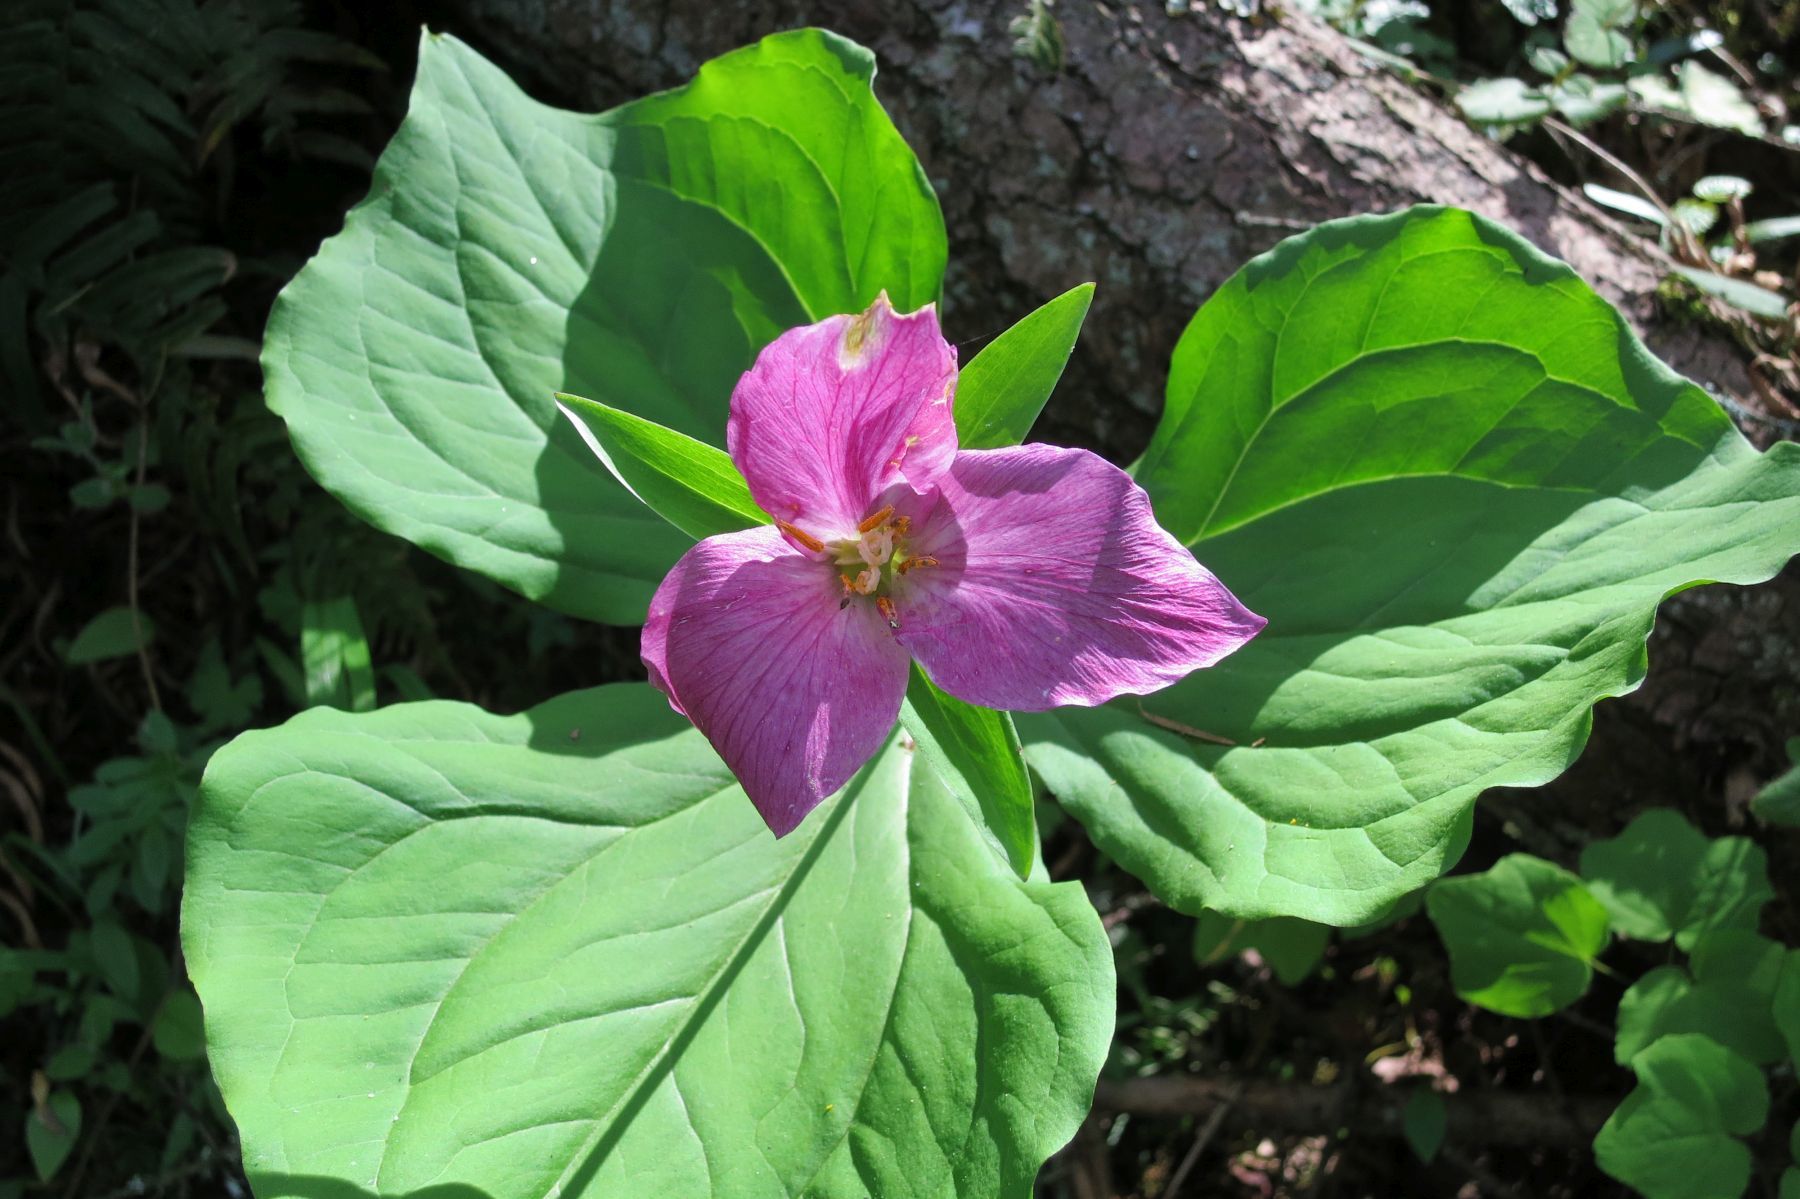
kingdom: Plantae
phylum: Tracheophyta
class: Liliopsida
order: Liliales
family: Melanthiaceae
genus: Trillium
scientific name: Trillium ovatum
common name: Pacific trillium
